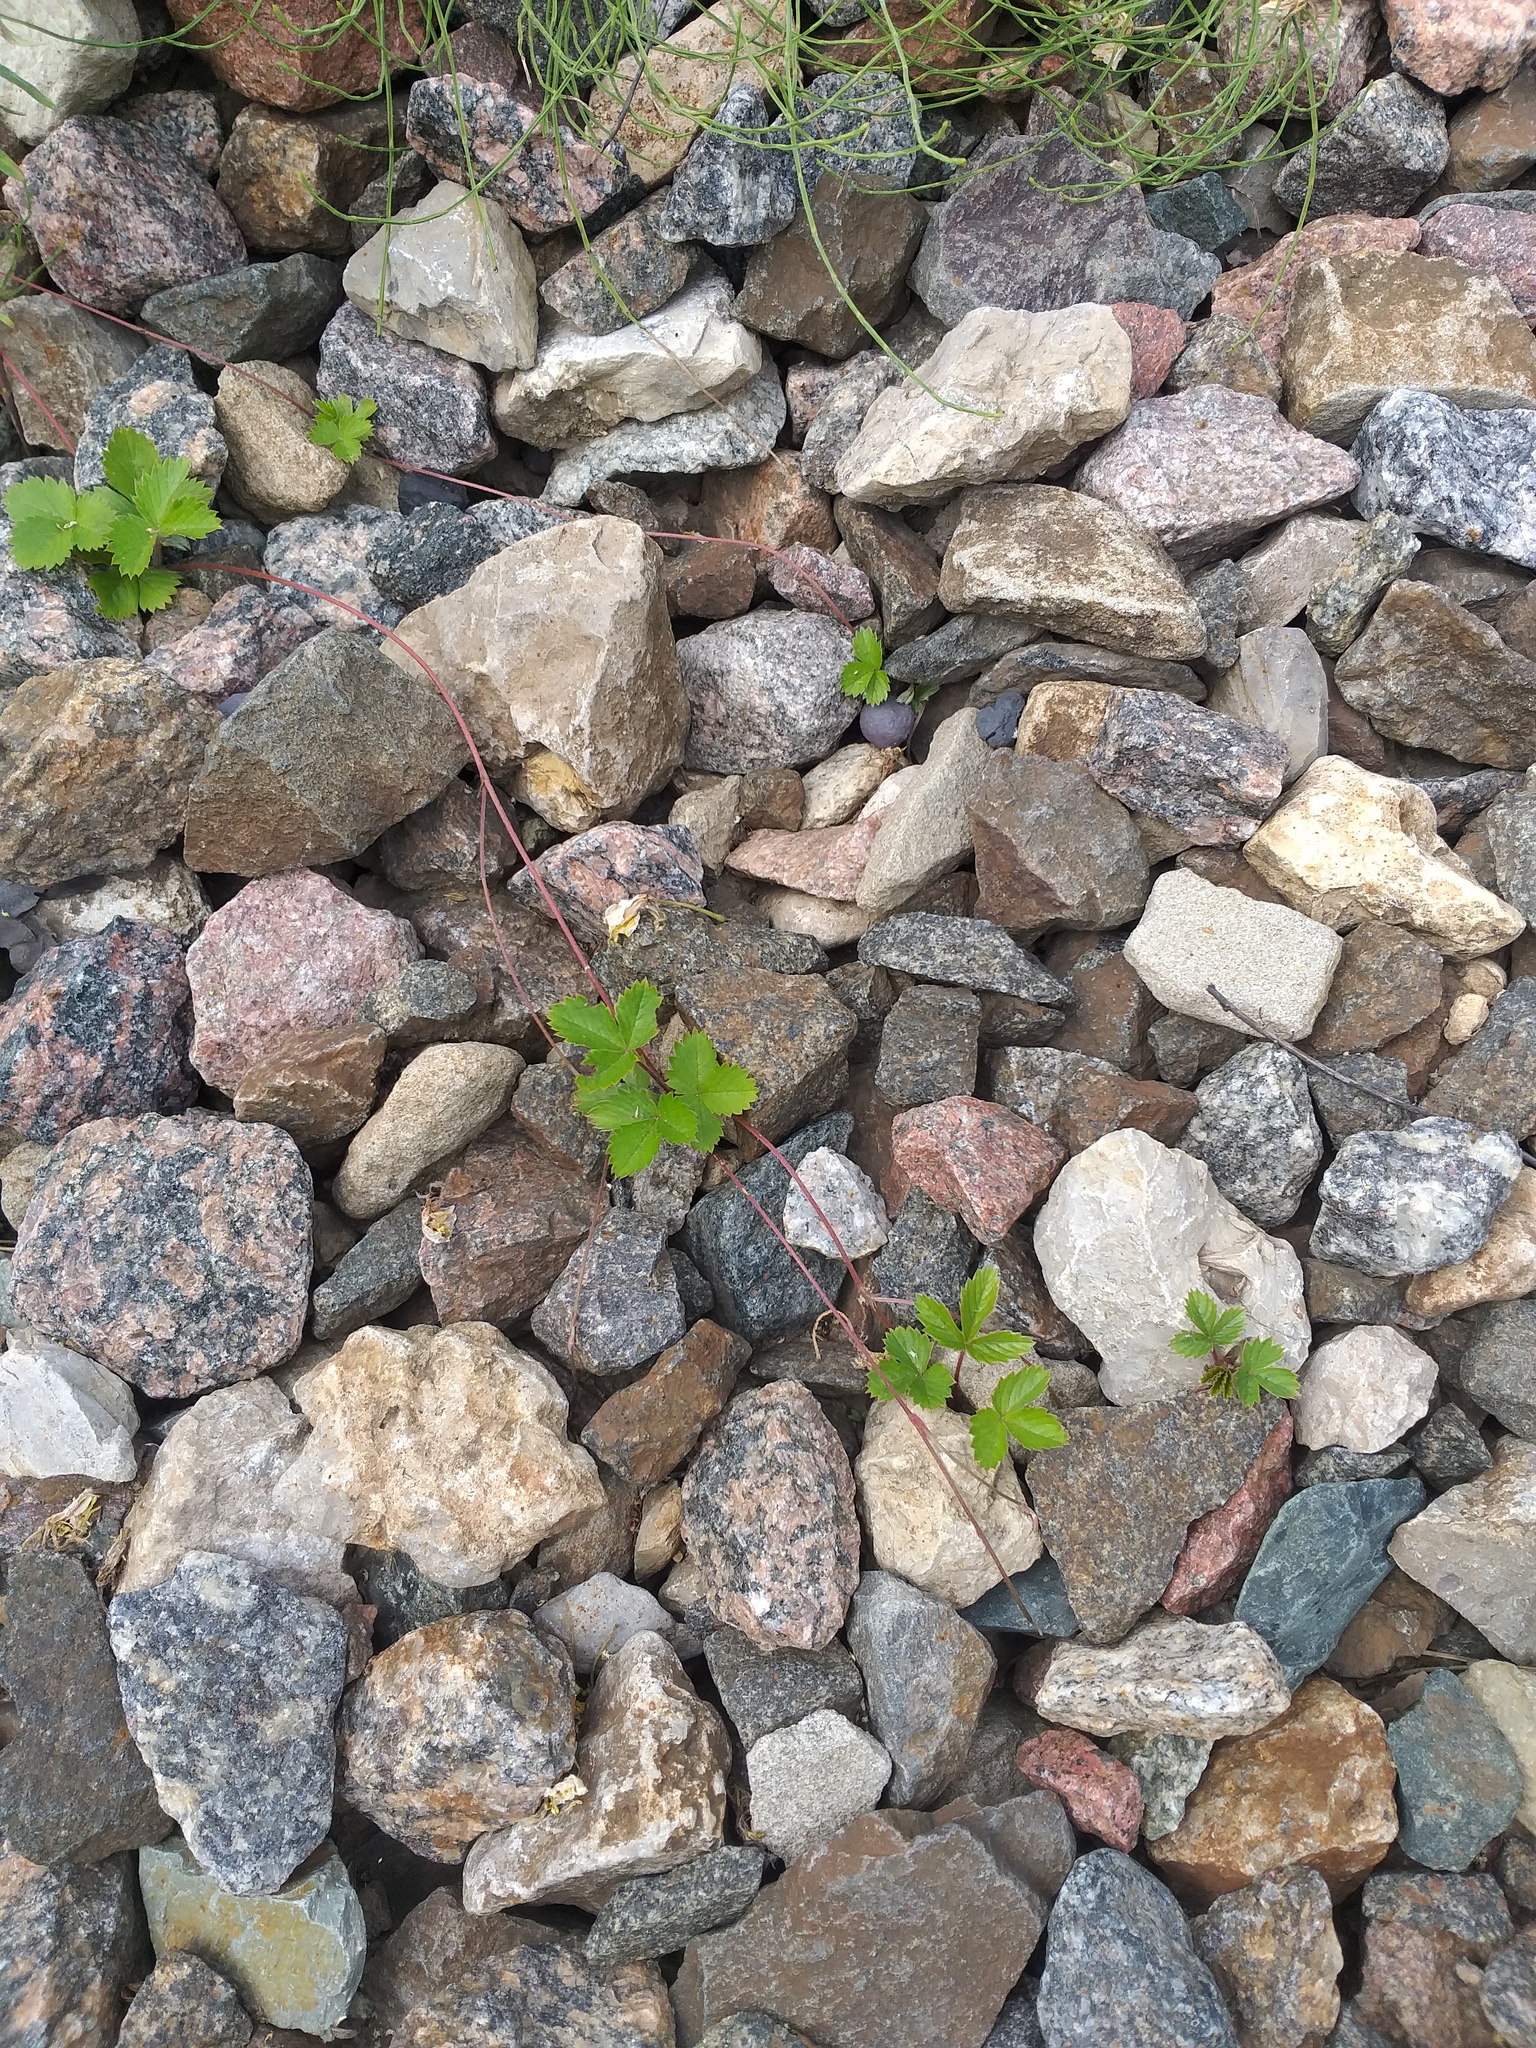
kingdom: Plantae
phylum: Tracheophyta
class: Magnoliopsida
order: Rosales
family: Rosaceae
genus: Fragaria
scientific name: Fragaria vesca
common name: Wild strawberry
